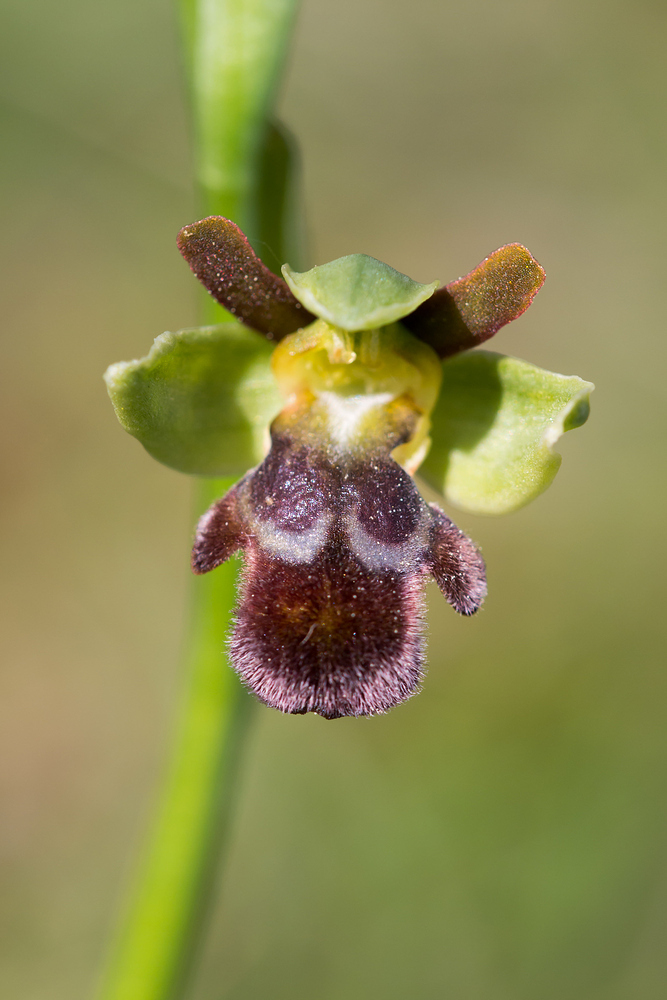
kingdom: Plantae
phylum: Tracheophyta
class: Liliopsida
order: Asparagales
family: Orchidaceae
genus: Ophrys
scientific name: Ophrys brigittae
